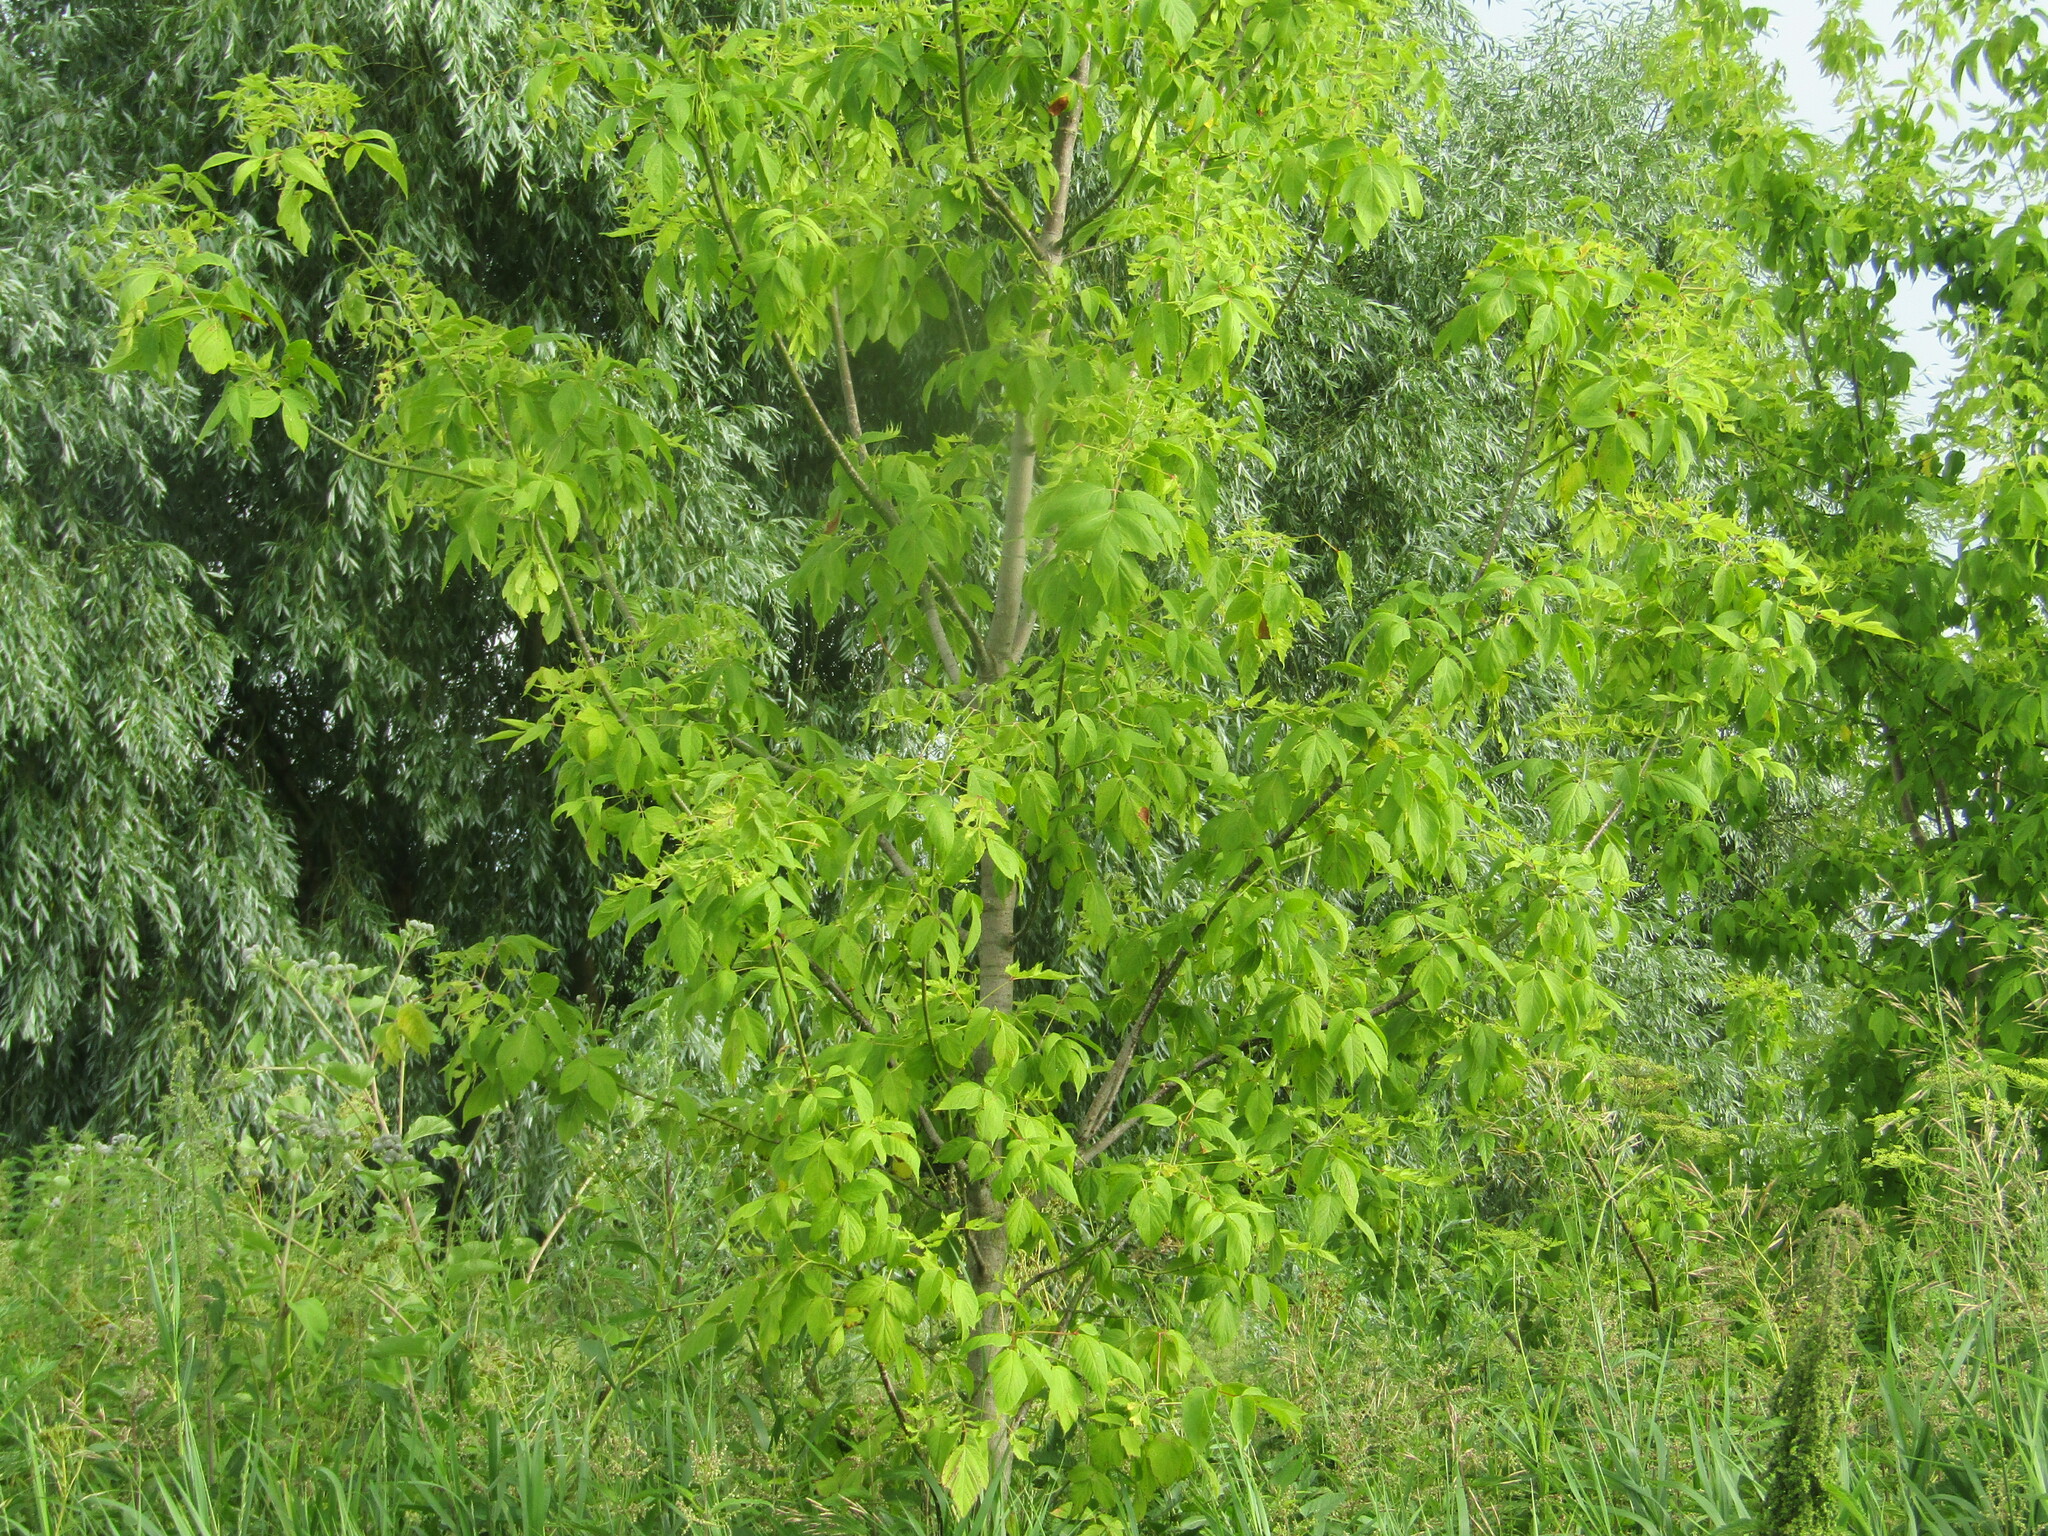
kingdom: Plantae
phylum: Tracheophyta
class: Magnoliopsida
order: Sapindales
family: Sapindaceae
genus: Acer
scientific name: Acer negundo
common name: Ashleaf maple
